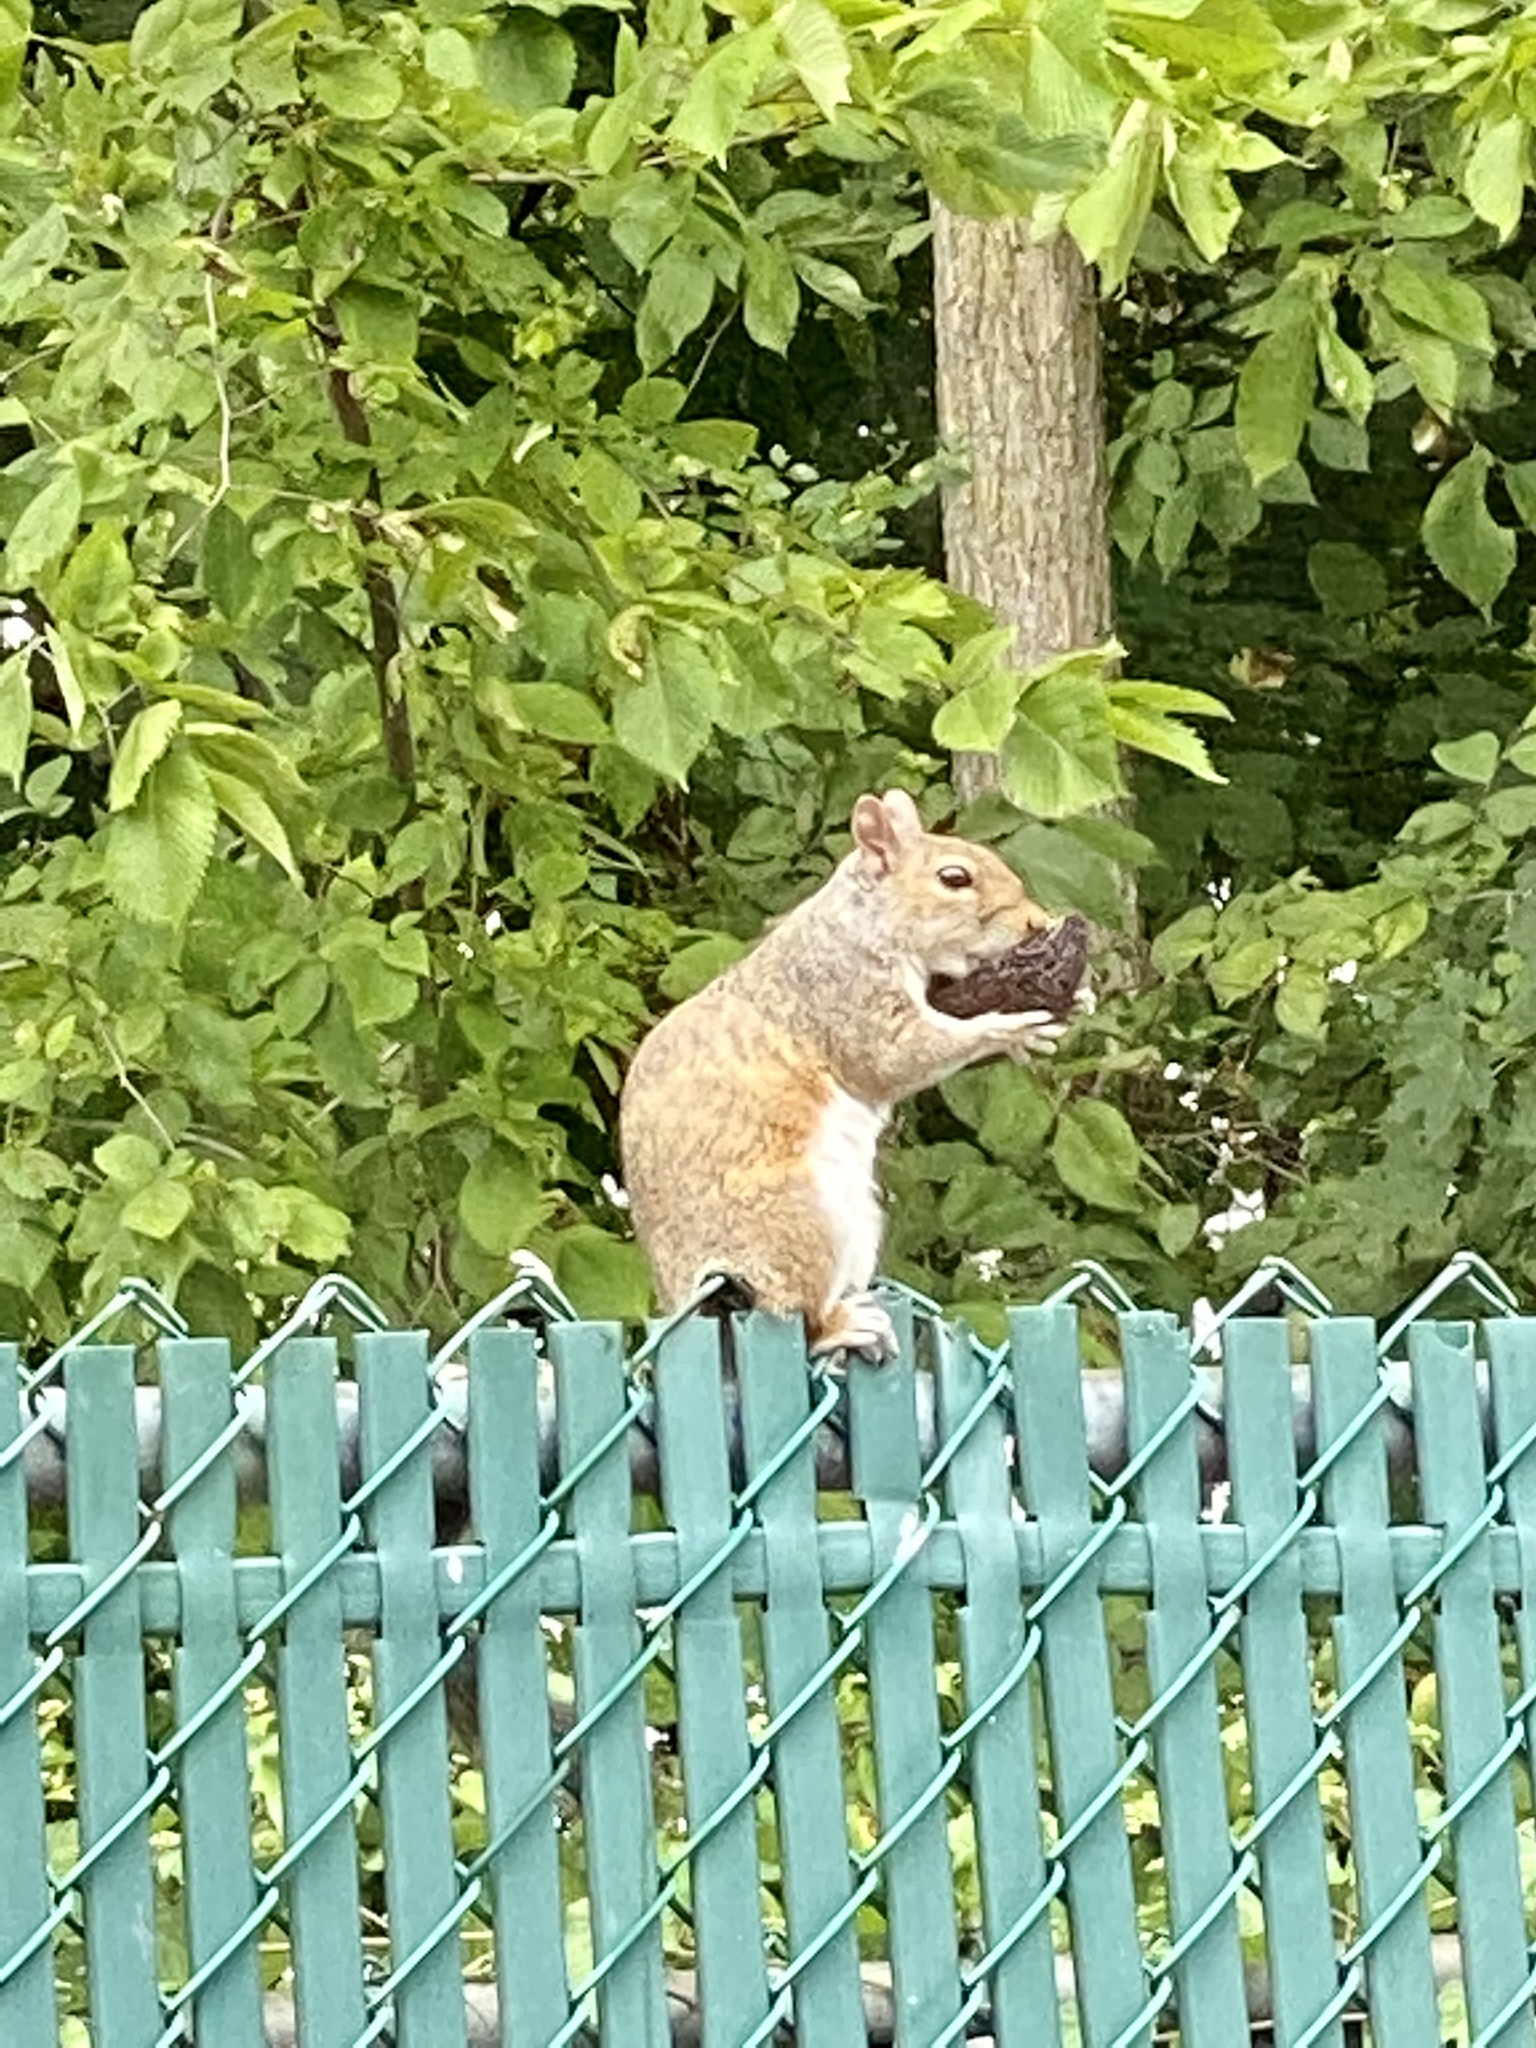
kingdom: Animalia
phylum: Chordata
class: Mammalia
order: Rodentia
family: Sciuridae
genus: Sciurus
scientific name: Sciurus carolinensis
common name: Eastern gray squirrel
